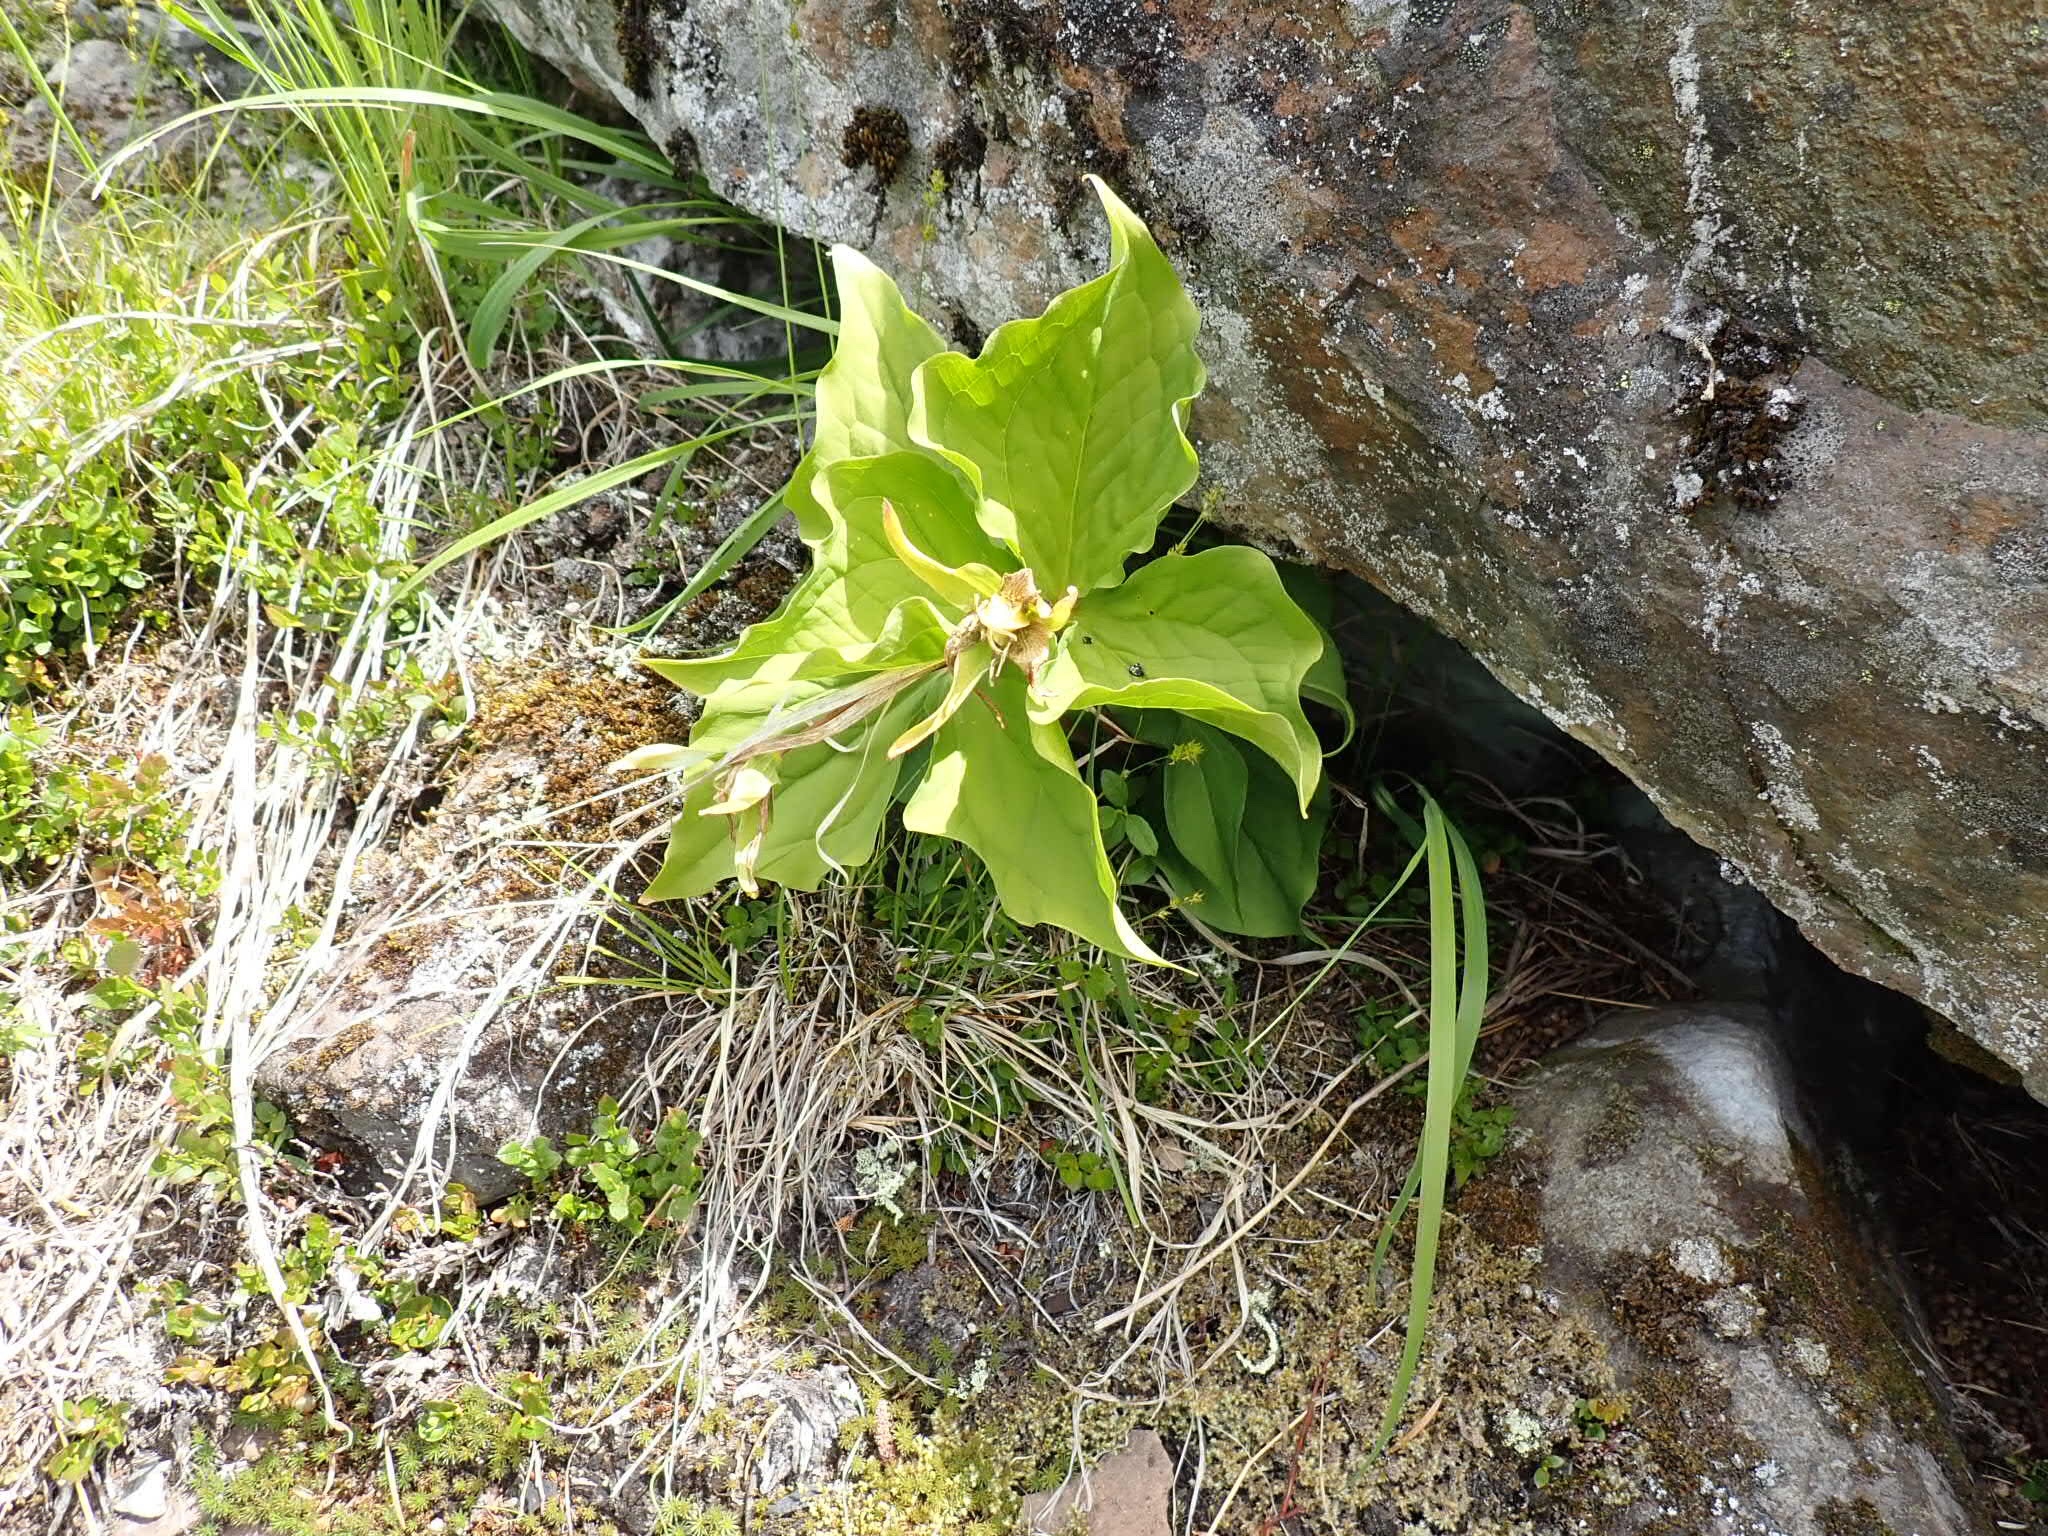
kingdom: Plantae
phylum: Tracheophyta
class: Liliopsida
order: Liliales
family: Melanthiaceae
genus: Trillium
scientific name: Trillium ovatum
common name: Pacific trillium
